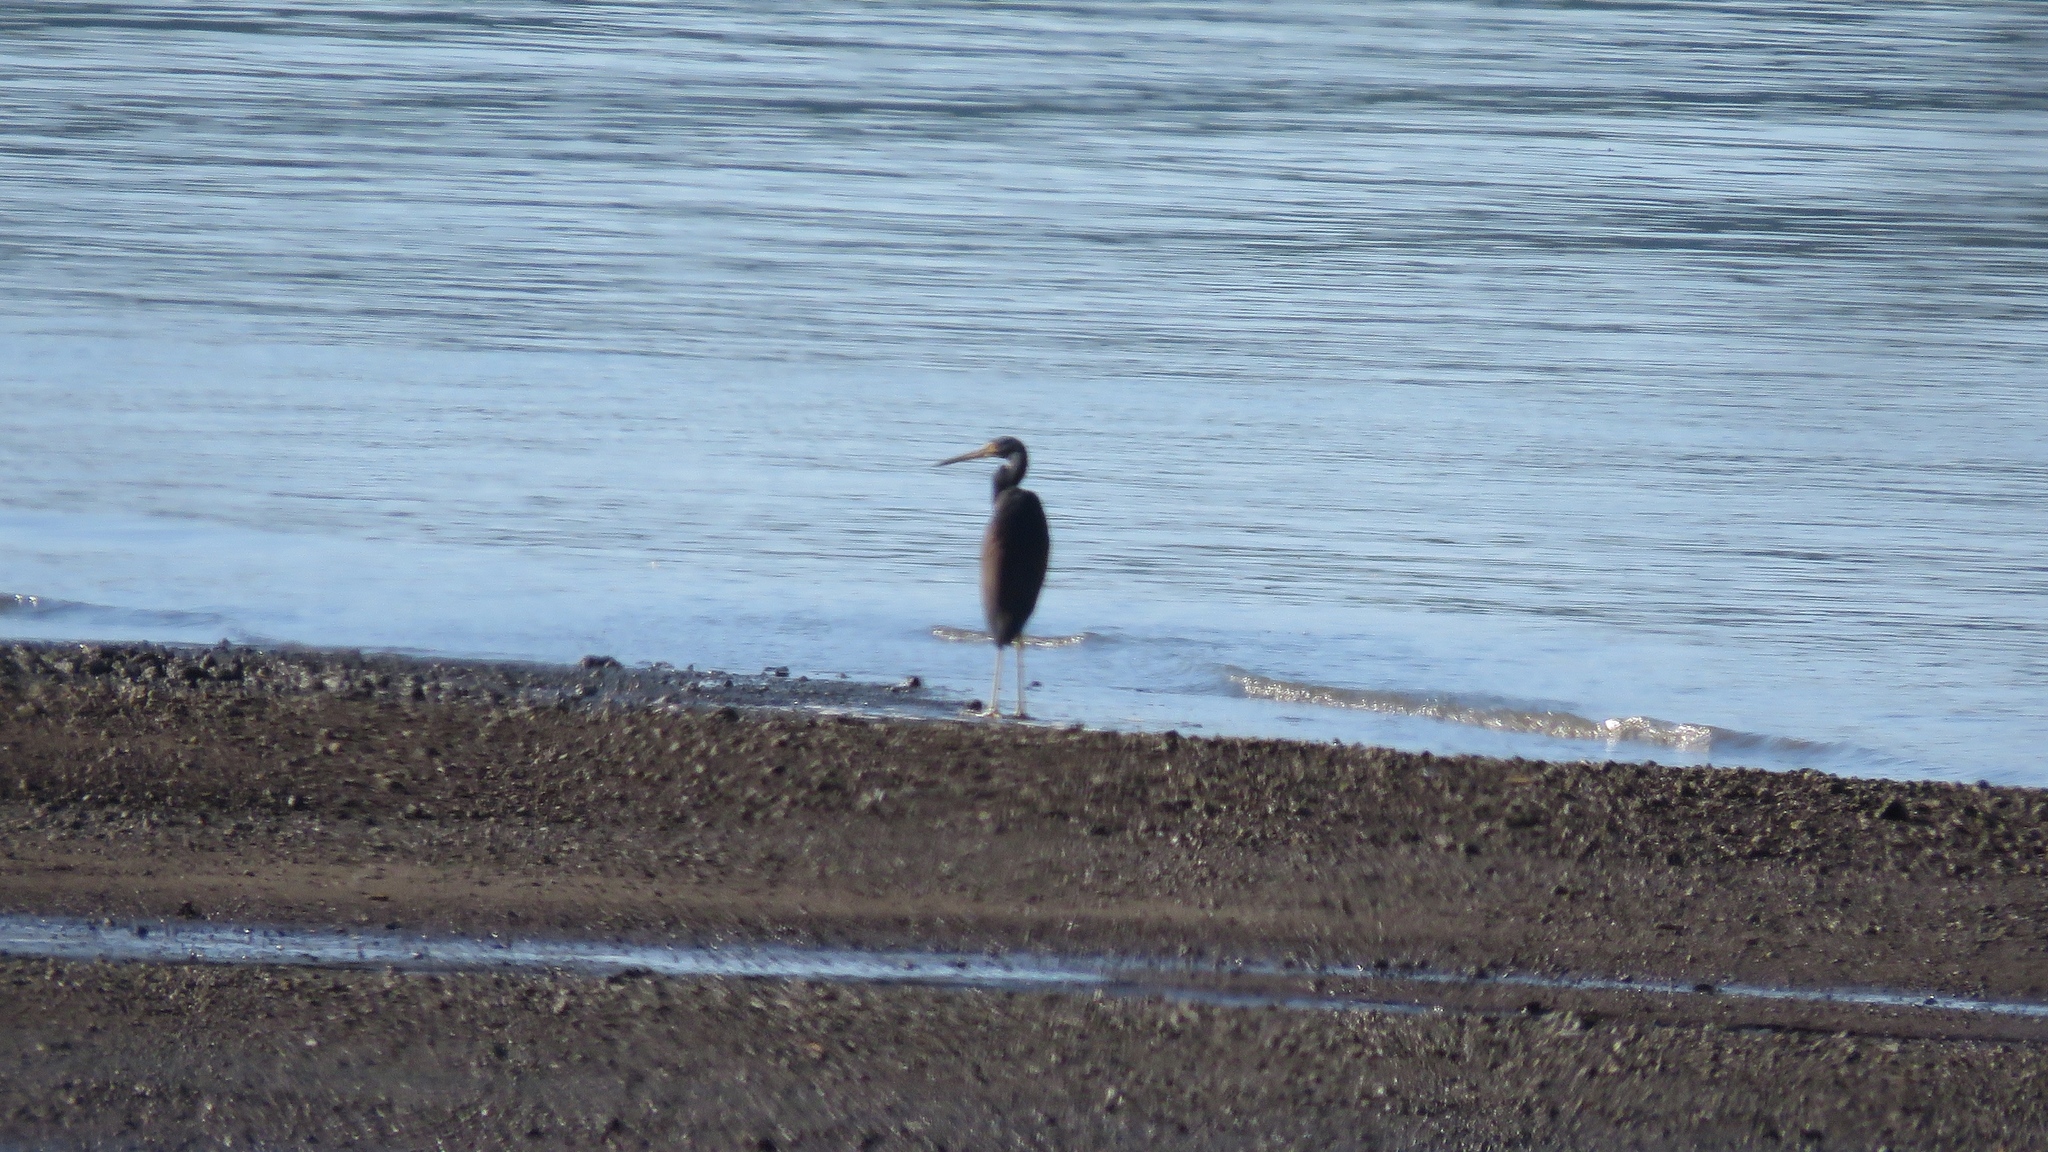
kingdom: Animalia
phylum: Chordata
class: Aves
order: Pelecaniformes
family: Ardeidae
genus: Egretta
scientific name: Egretta tricolor
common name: Tricolored heron
